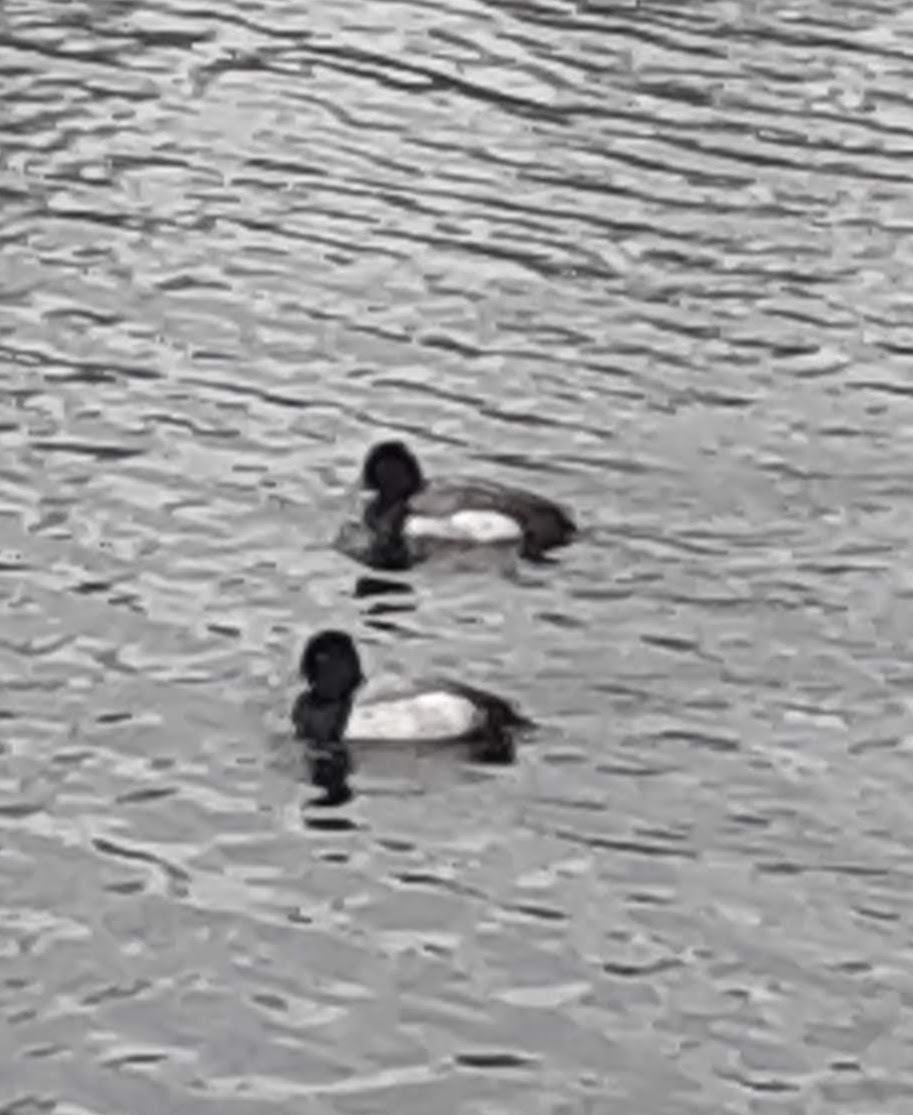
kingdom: Animalia
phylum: Chordata
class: Aves
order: Anseriformes
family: Anatidae
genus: Aythya
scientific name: Aythya affinis
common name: Lesser scaup
